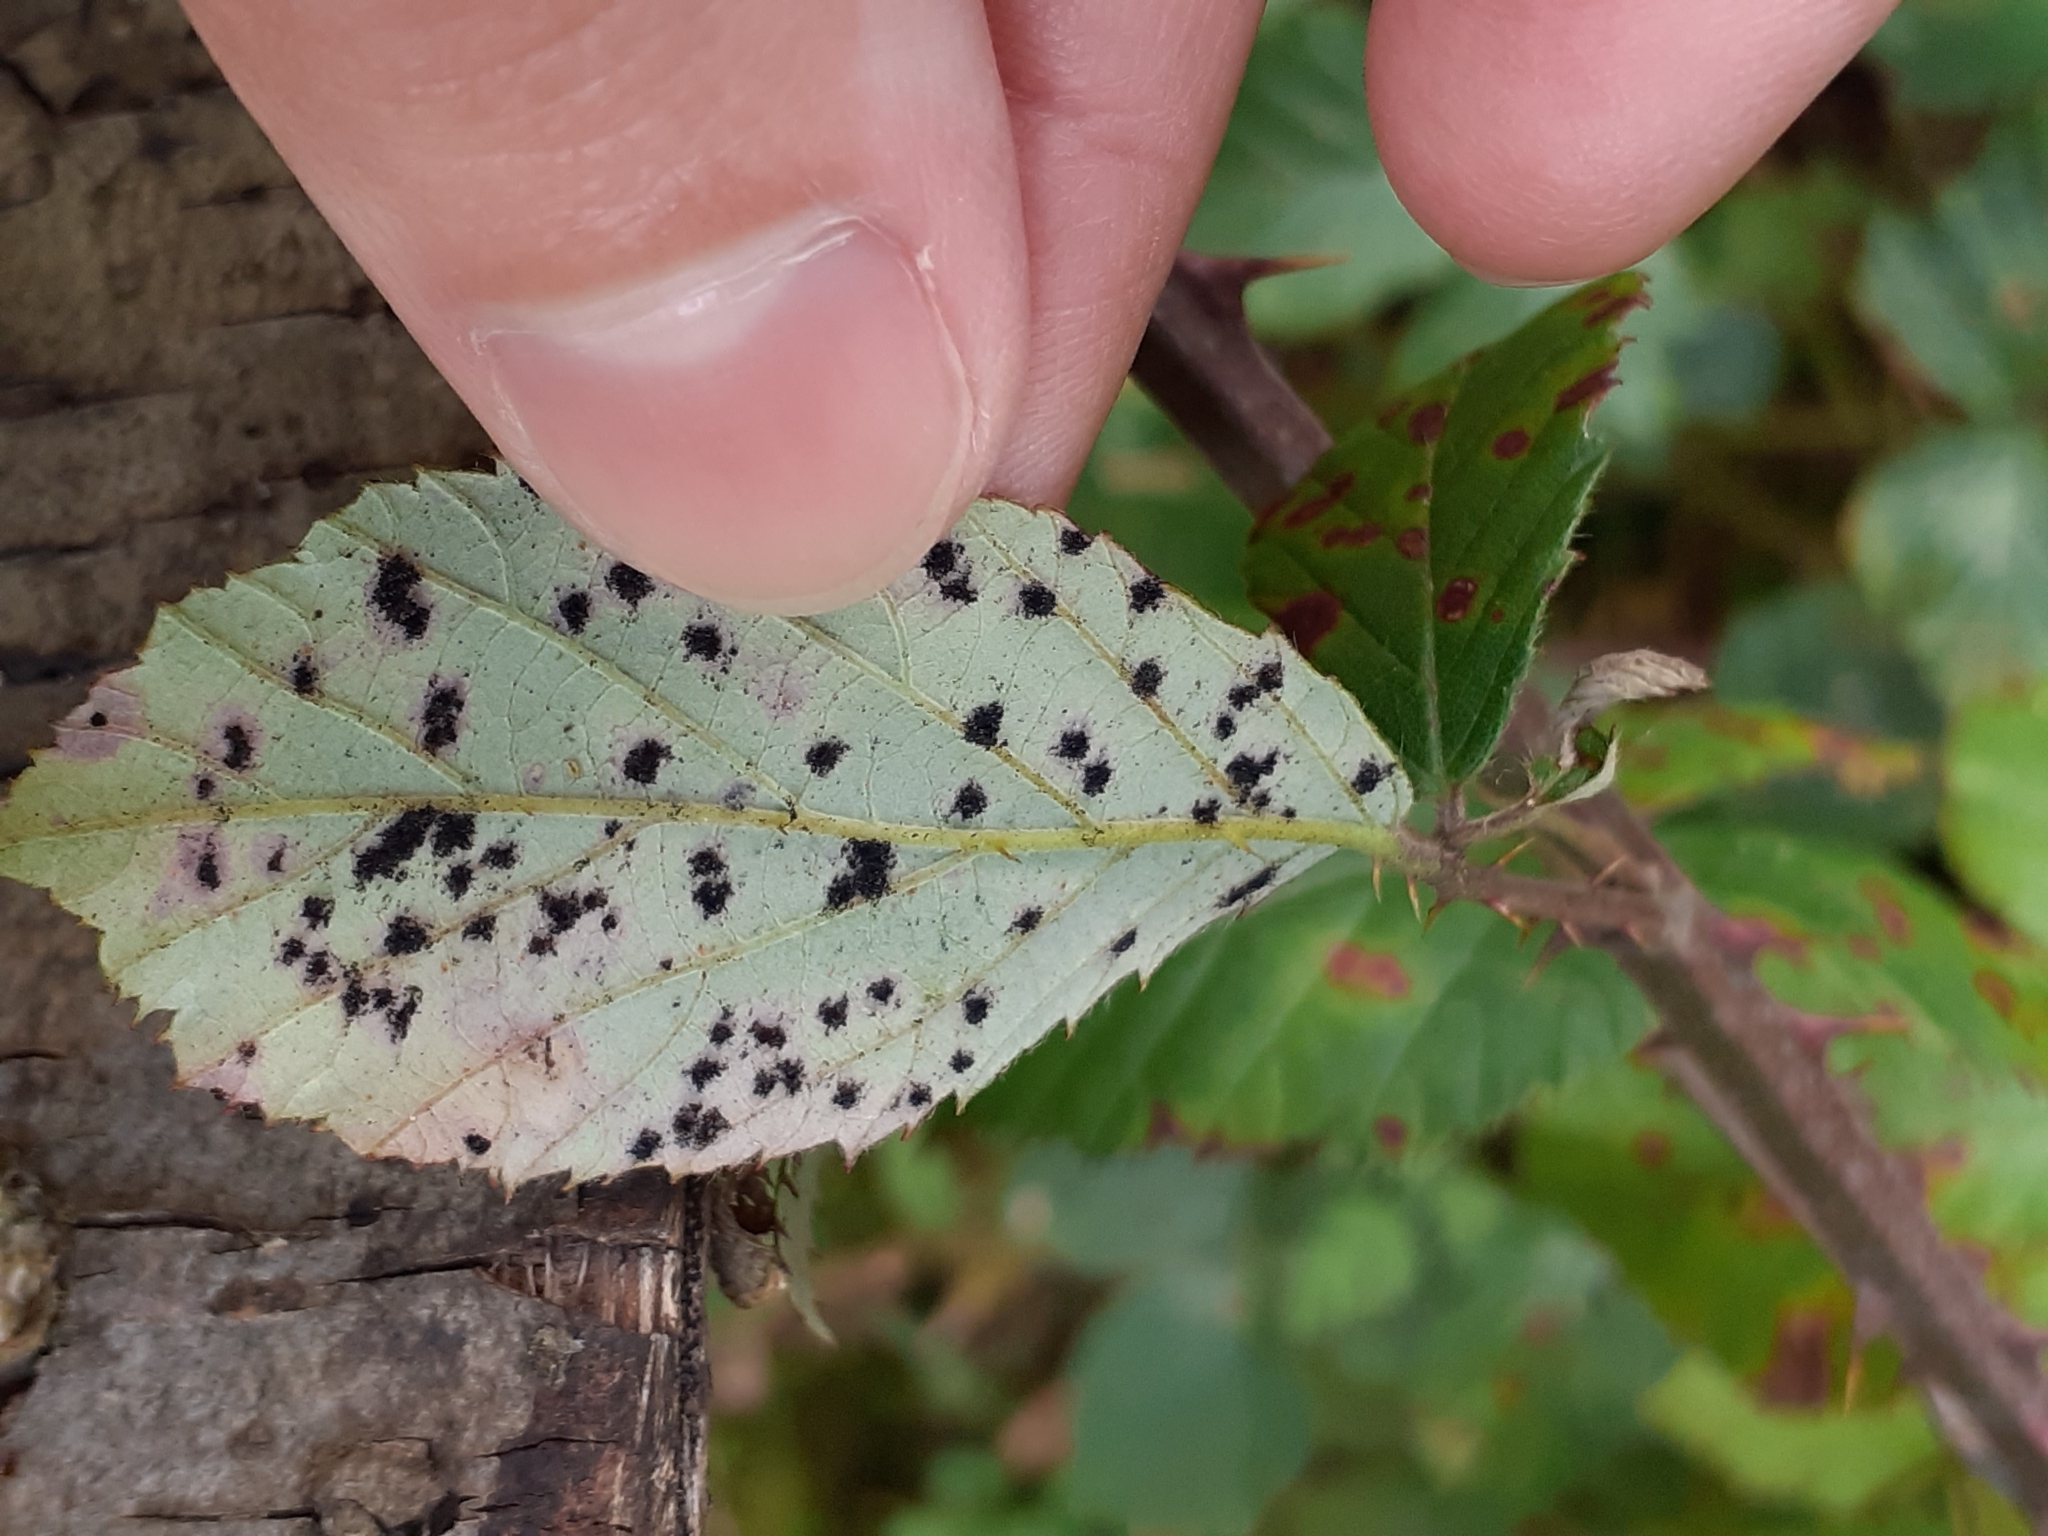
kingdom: Fungi
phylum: Basidiomycota
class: Pucciniomycetes
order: Pucciniales
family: Phragmidiaceae
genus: Phragmidium
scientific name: Phragmidium violaceum
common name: Violet bramble rust
